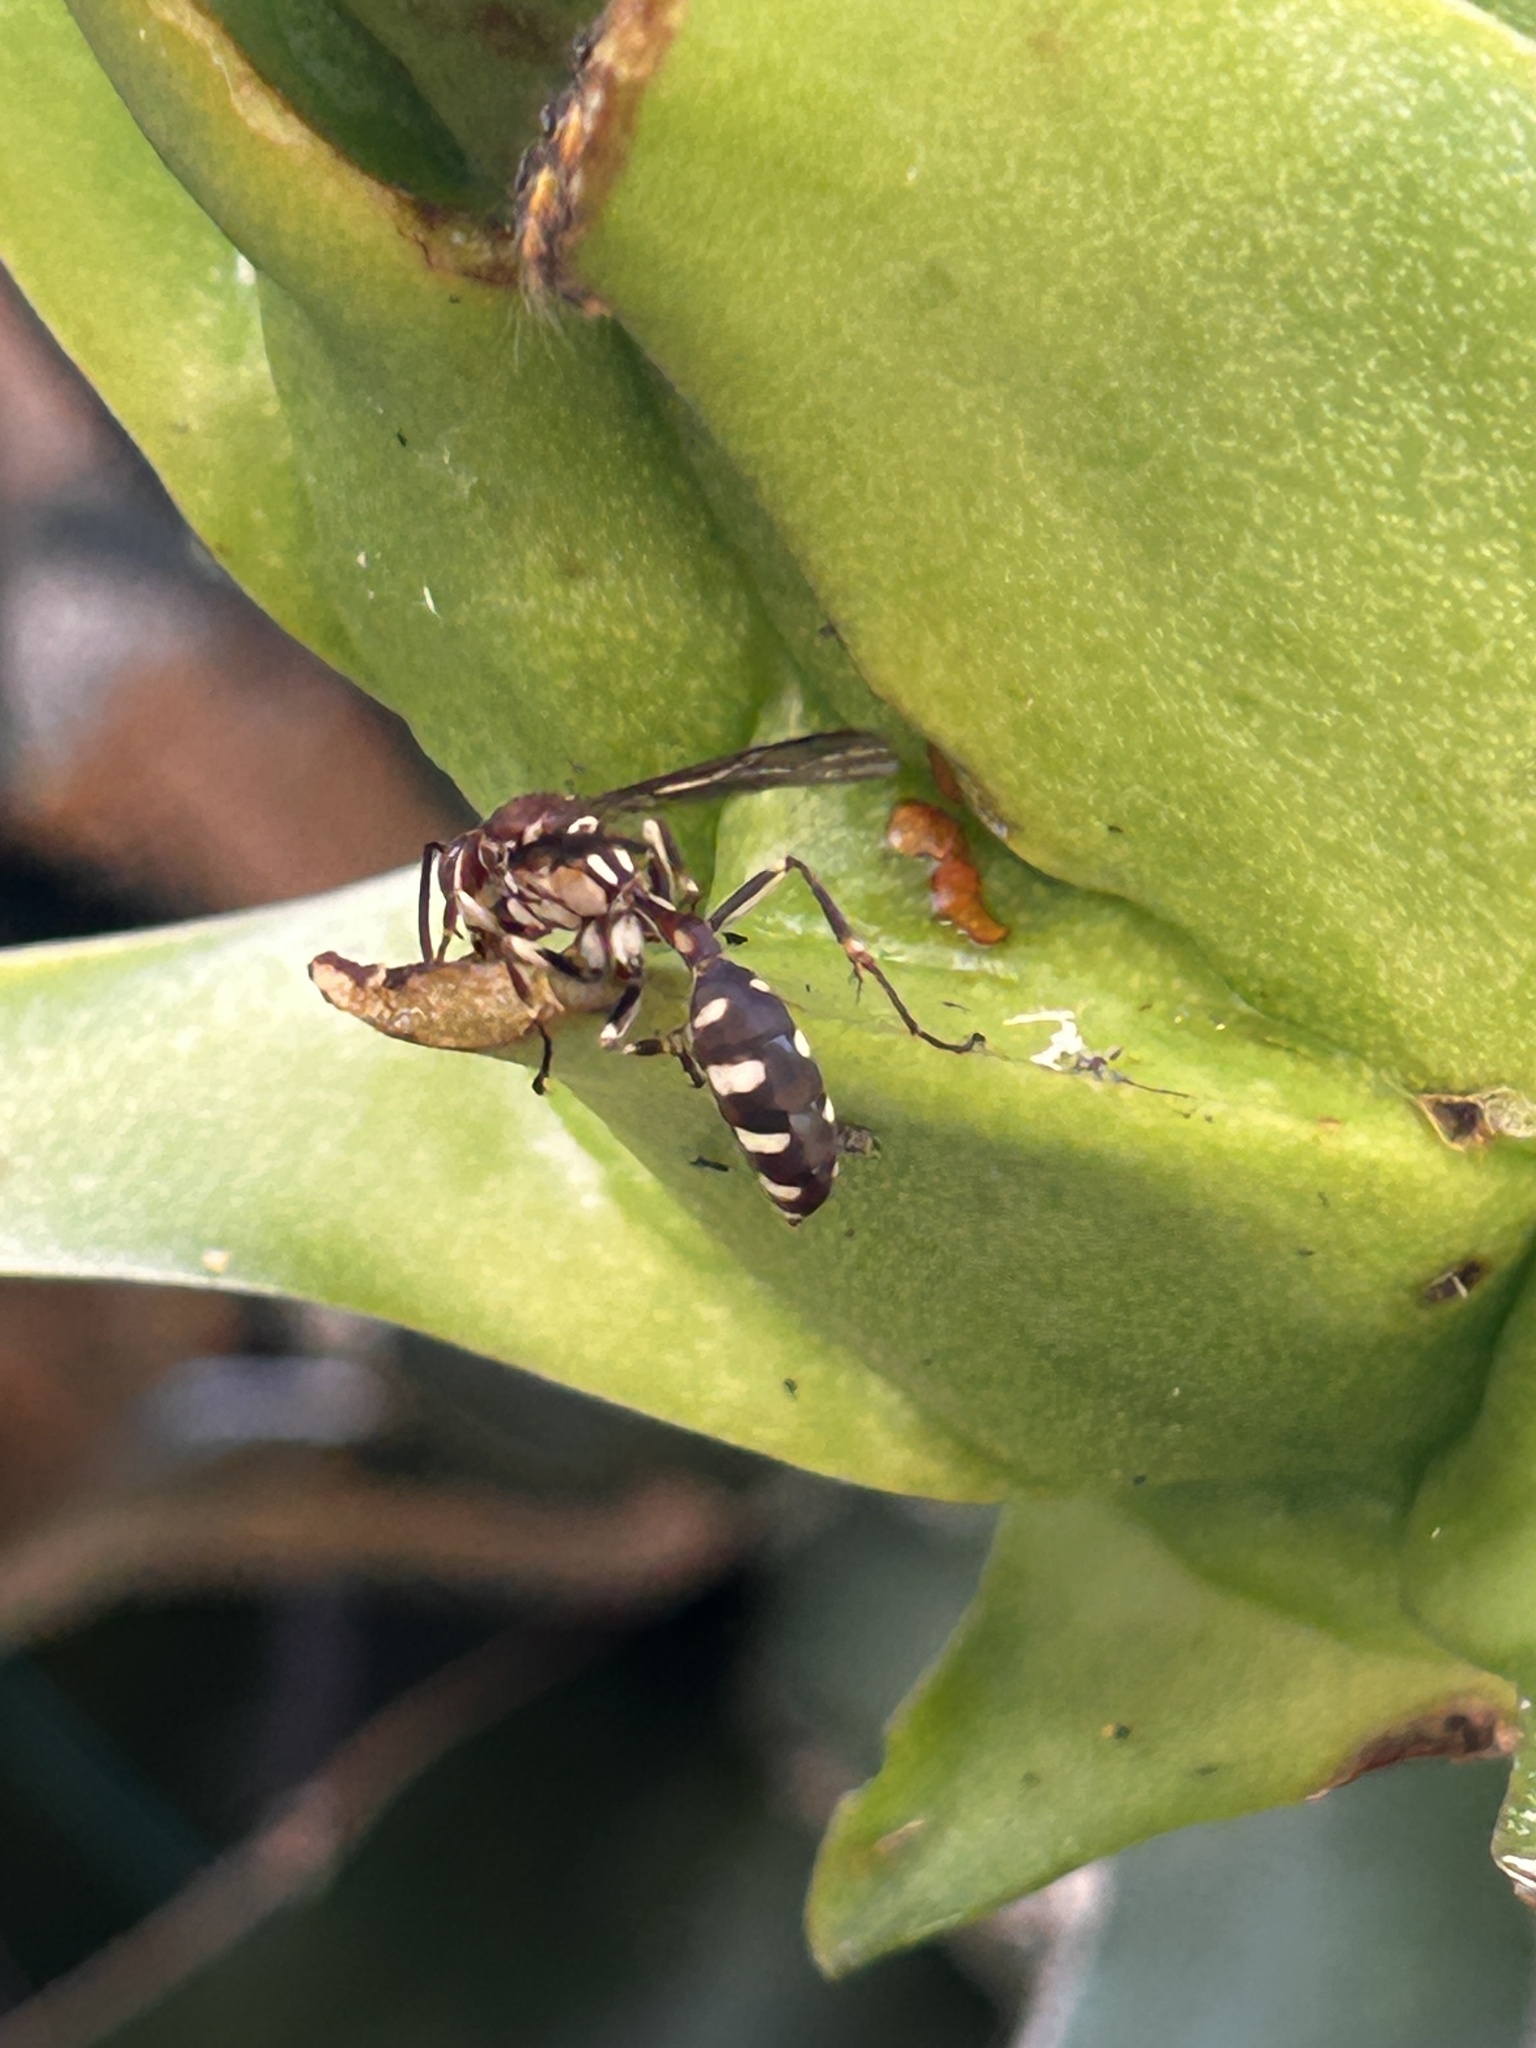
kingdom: Animalia
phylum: Arthropoda
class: Insecta
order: Hymenoptera
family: Vespidae
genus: Parapolybia
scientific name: Parapolybia nodosa
